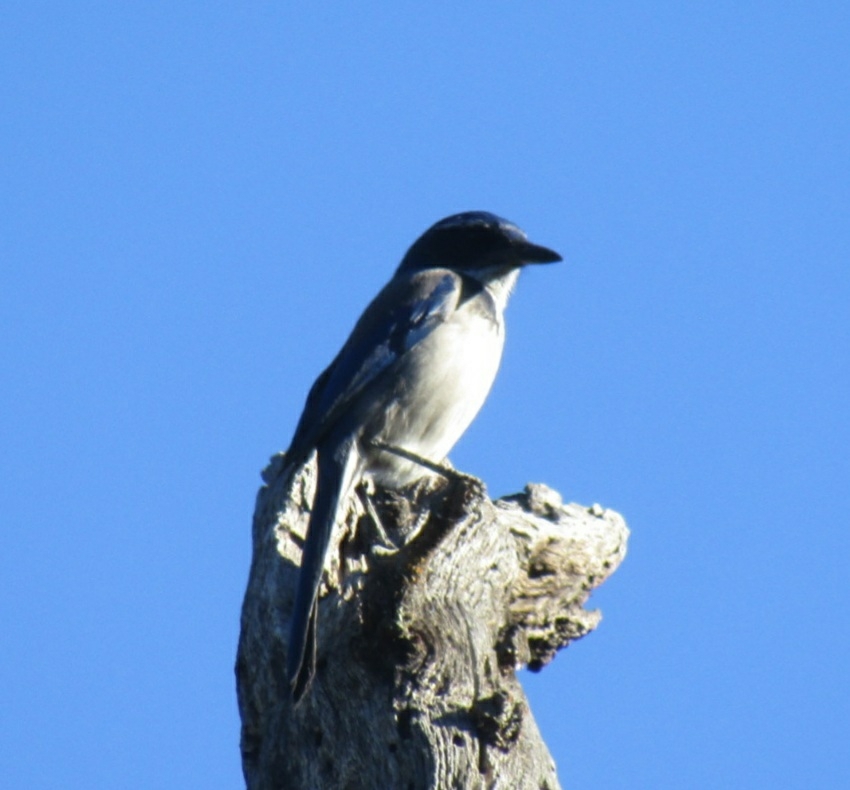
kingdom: Animalia
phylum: Chordata
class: Aves
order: Passeriformes
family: Corvidae
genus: Aphelocoma
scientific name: Aphelocoma californica
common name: California scrub-jay
